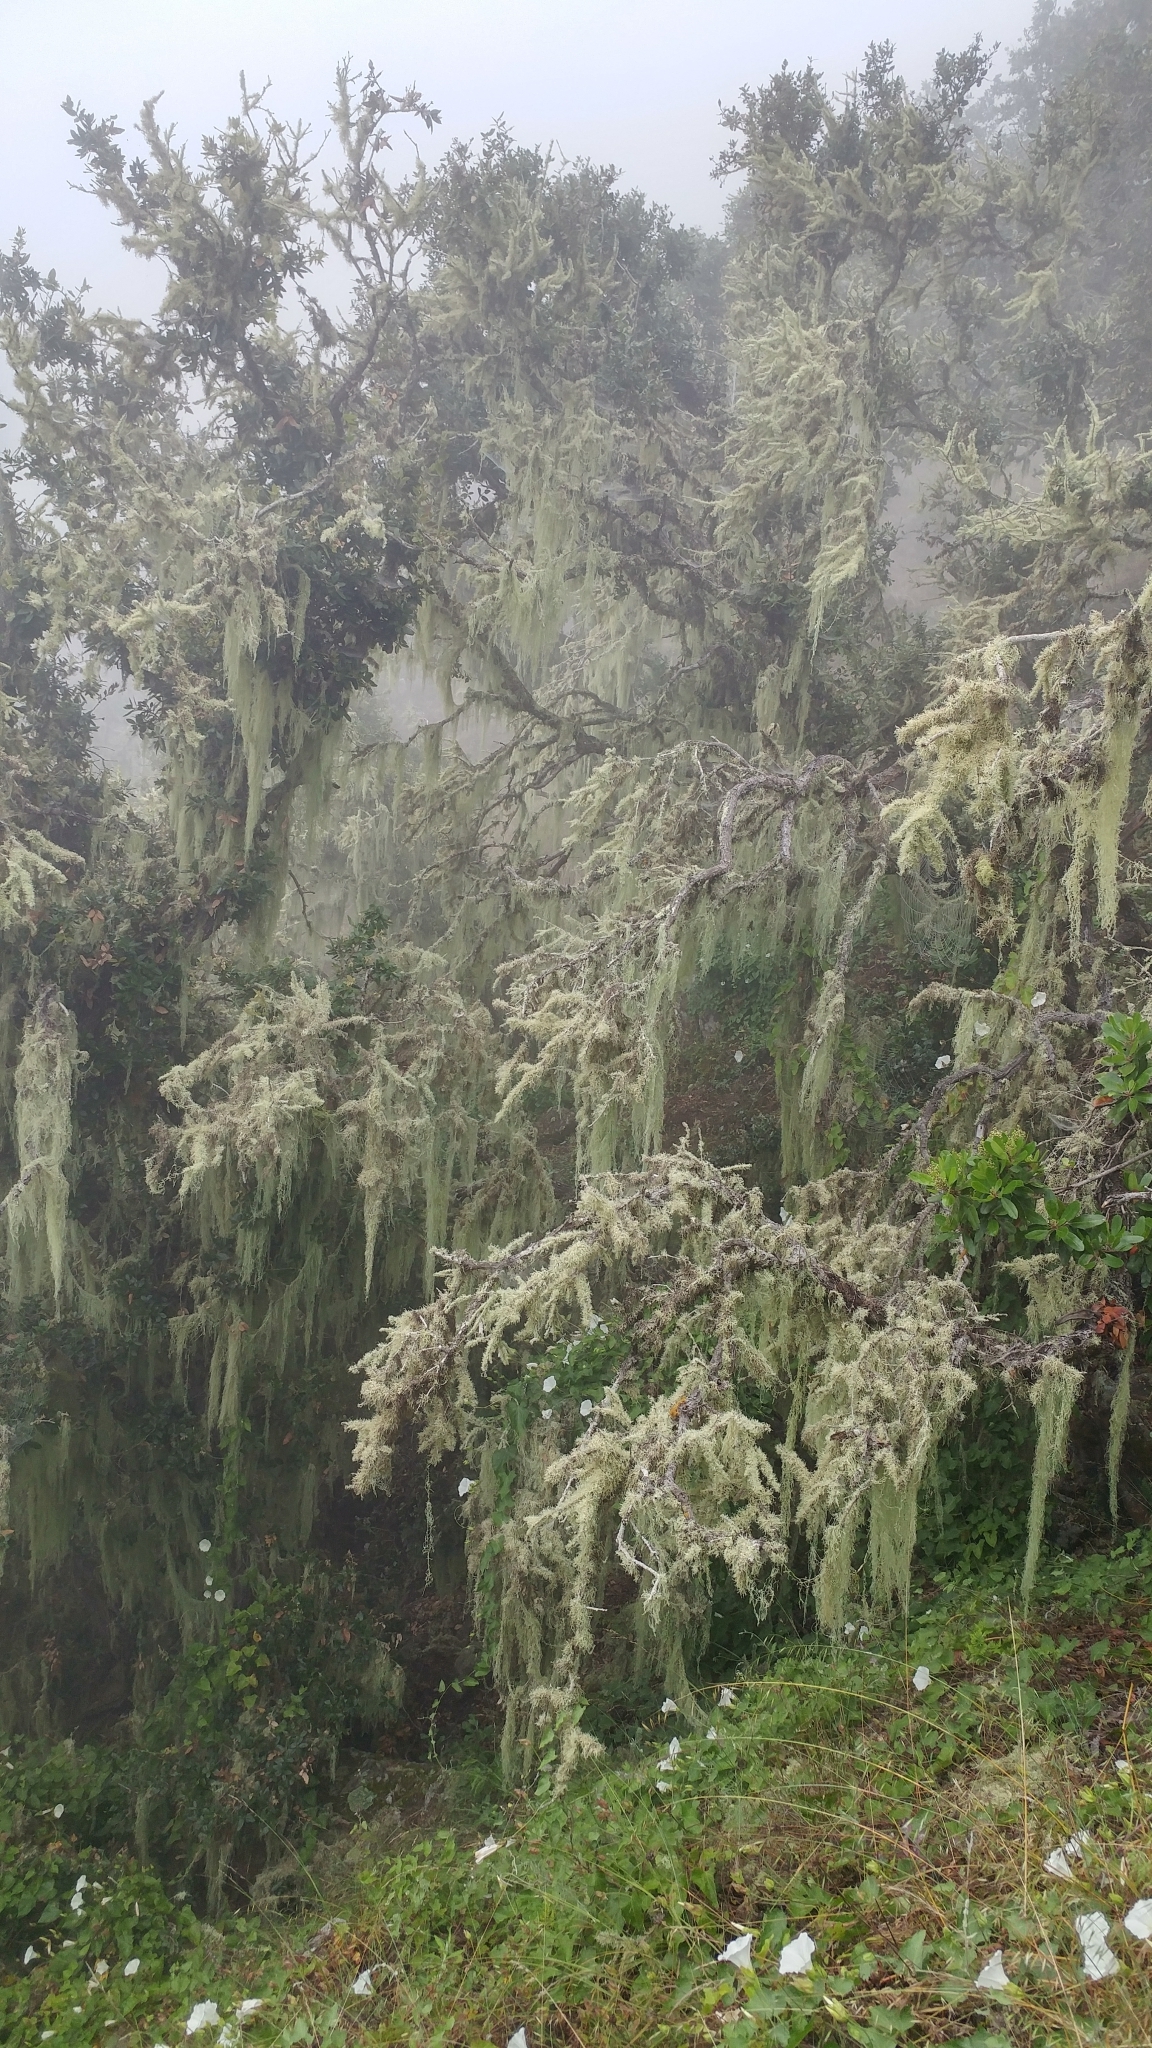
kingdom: Fungi
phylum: Ascomycota
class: Lecanoromycetes
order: Lecanorales
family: Ramalinaceae
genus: Ramalina
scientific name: Ramalina menziesii
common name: Lace lichen
